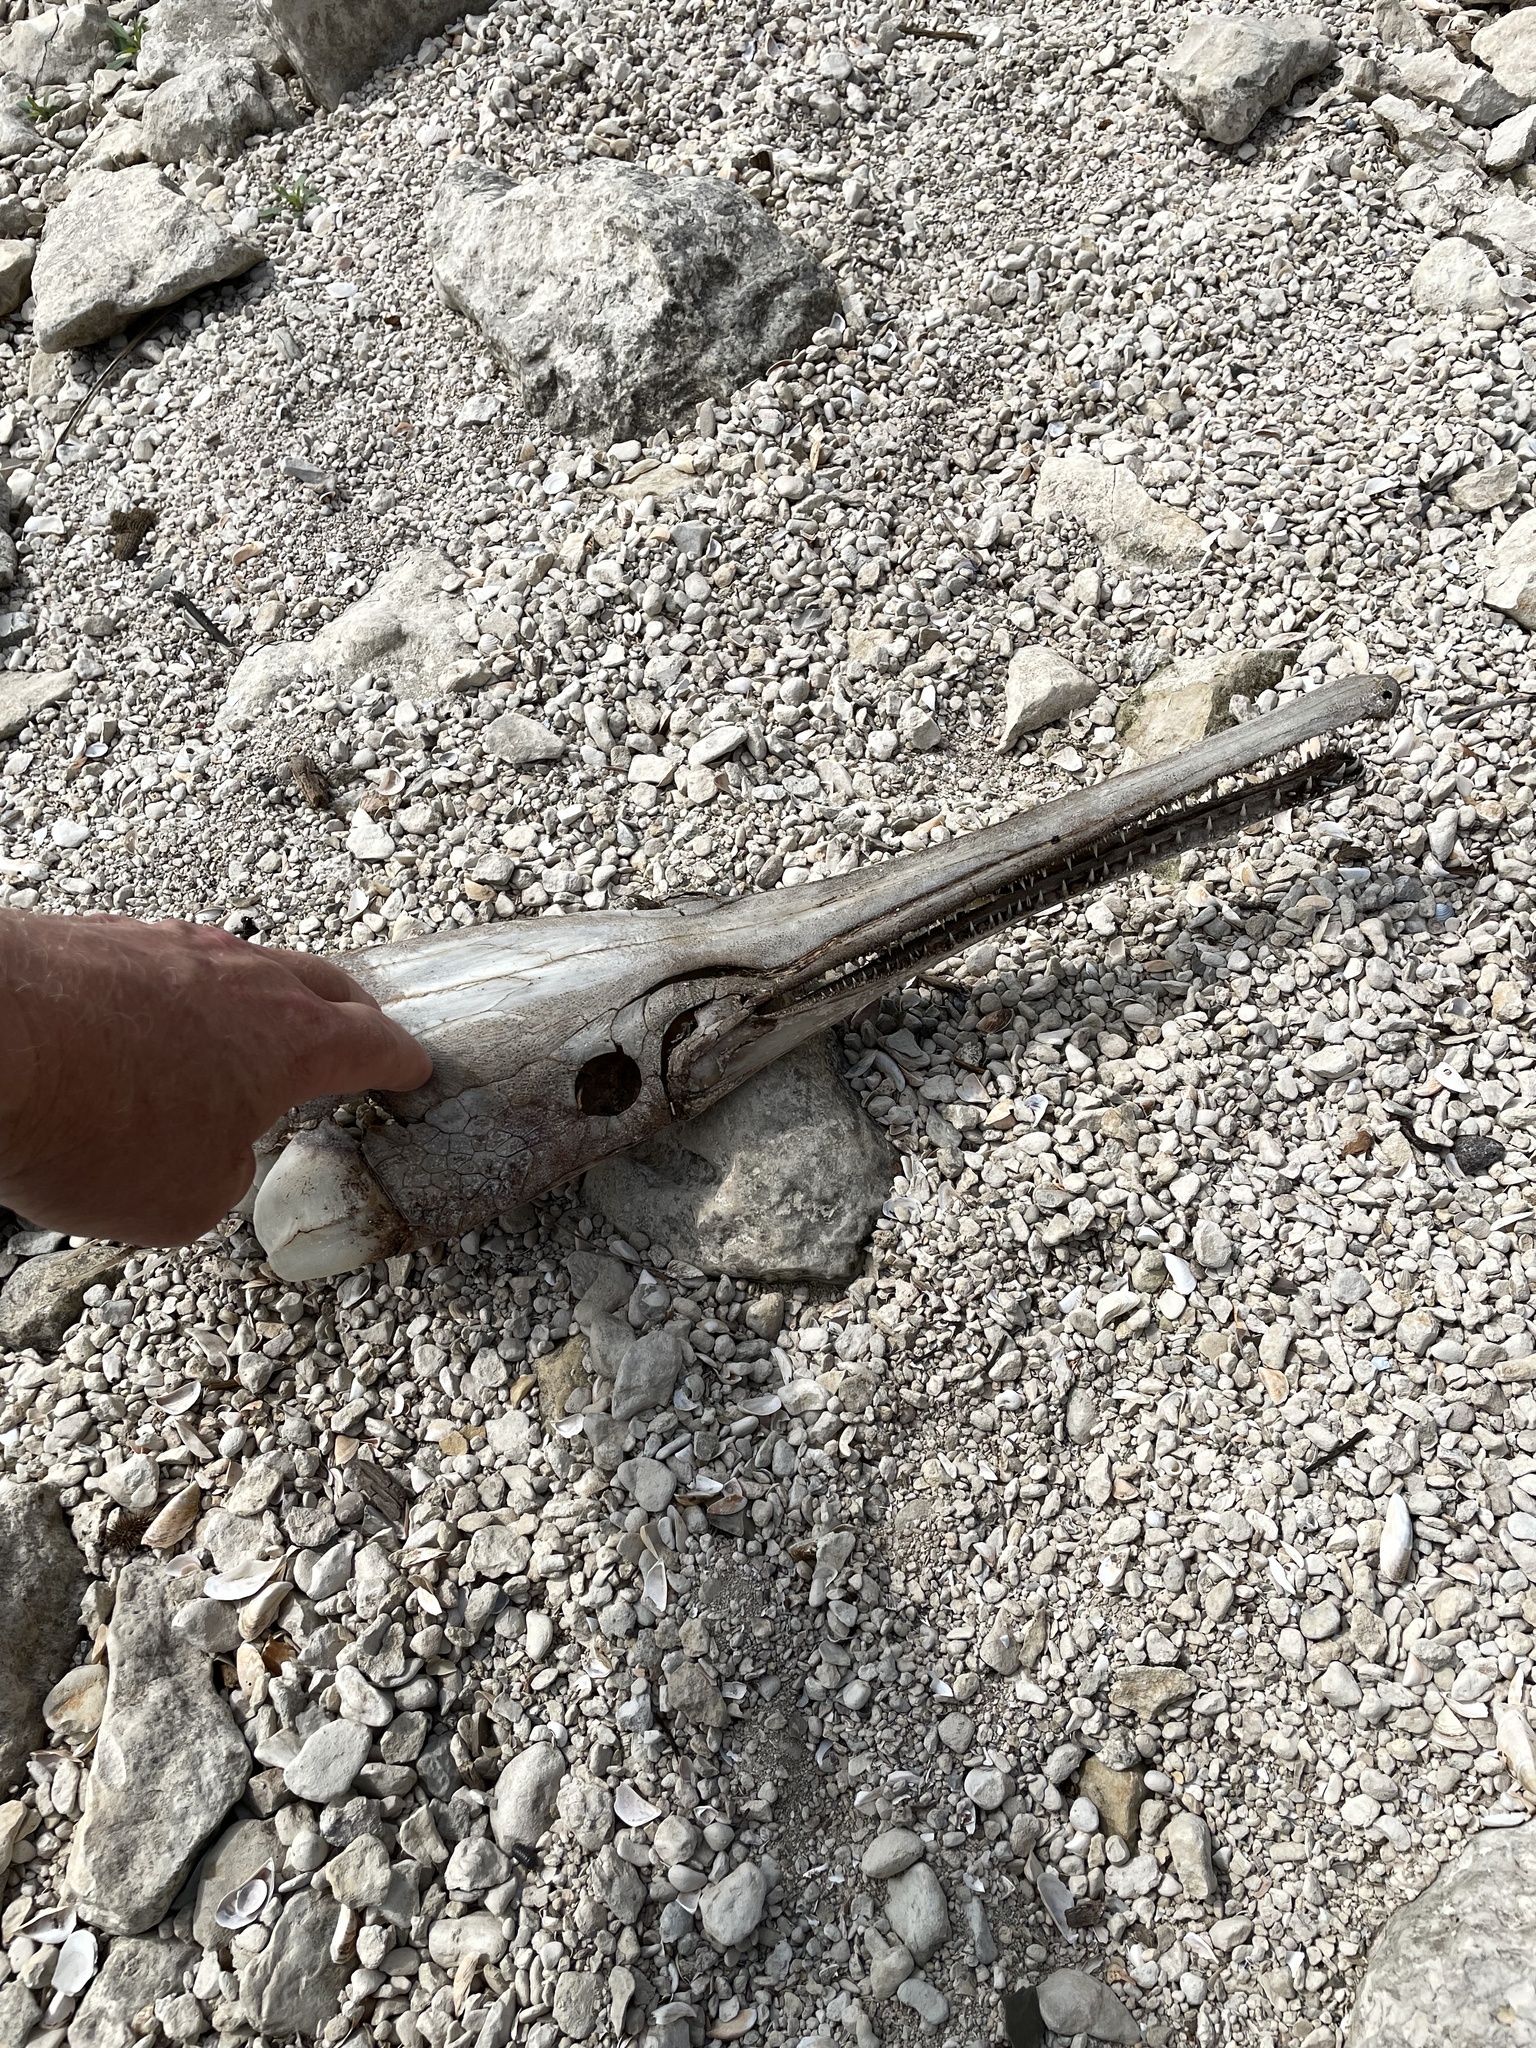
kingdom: Animalia
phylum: Chordata
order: Lepisosteiformes
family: Lepisosteidae
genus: Lepisosteus
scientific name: Lepisosteus osseus
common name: Longnose gar
